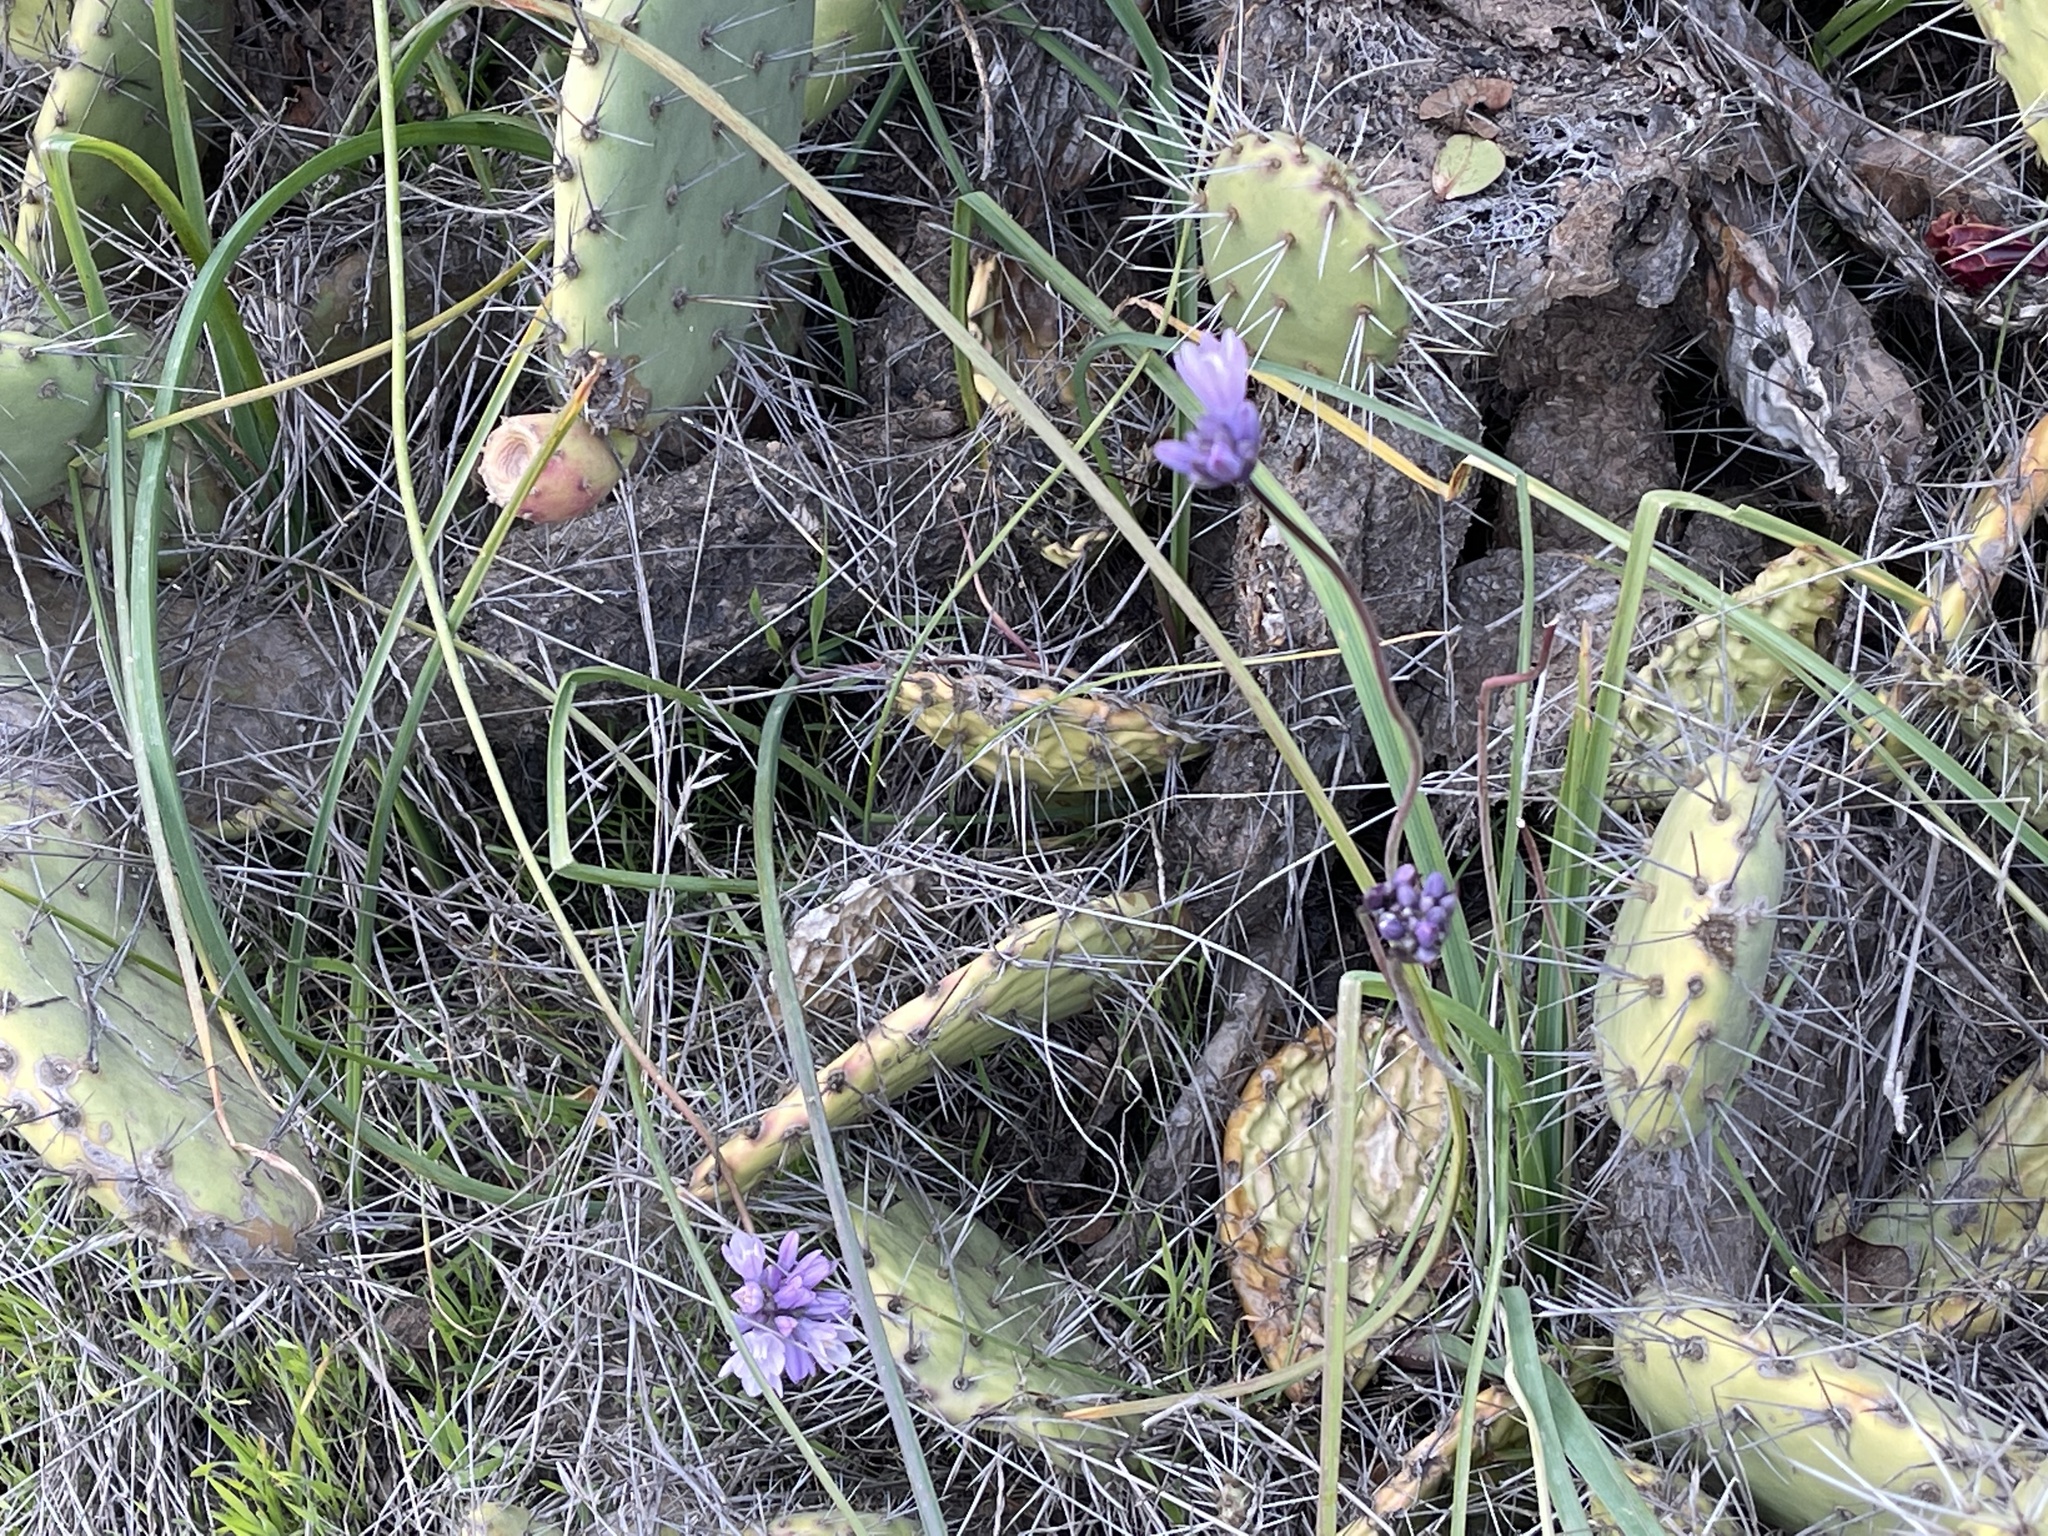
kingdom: Plantae
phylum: Tracheophyta
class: Liliopsida
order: Asparagales
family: Asparagaceae
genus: Dipterostemon
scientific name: Dipterostemon capitatus
